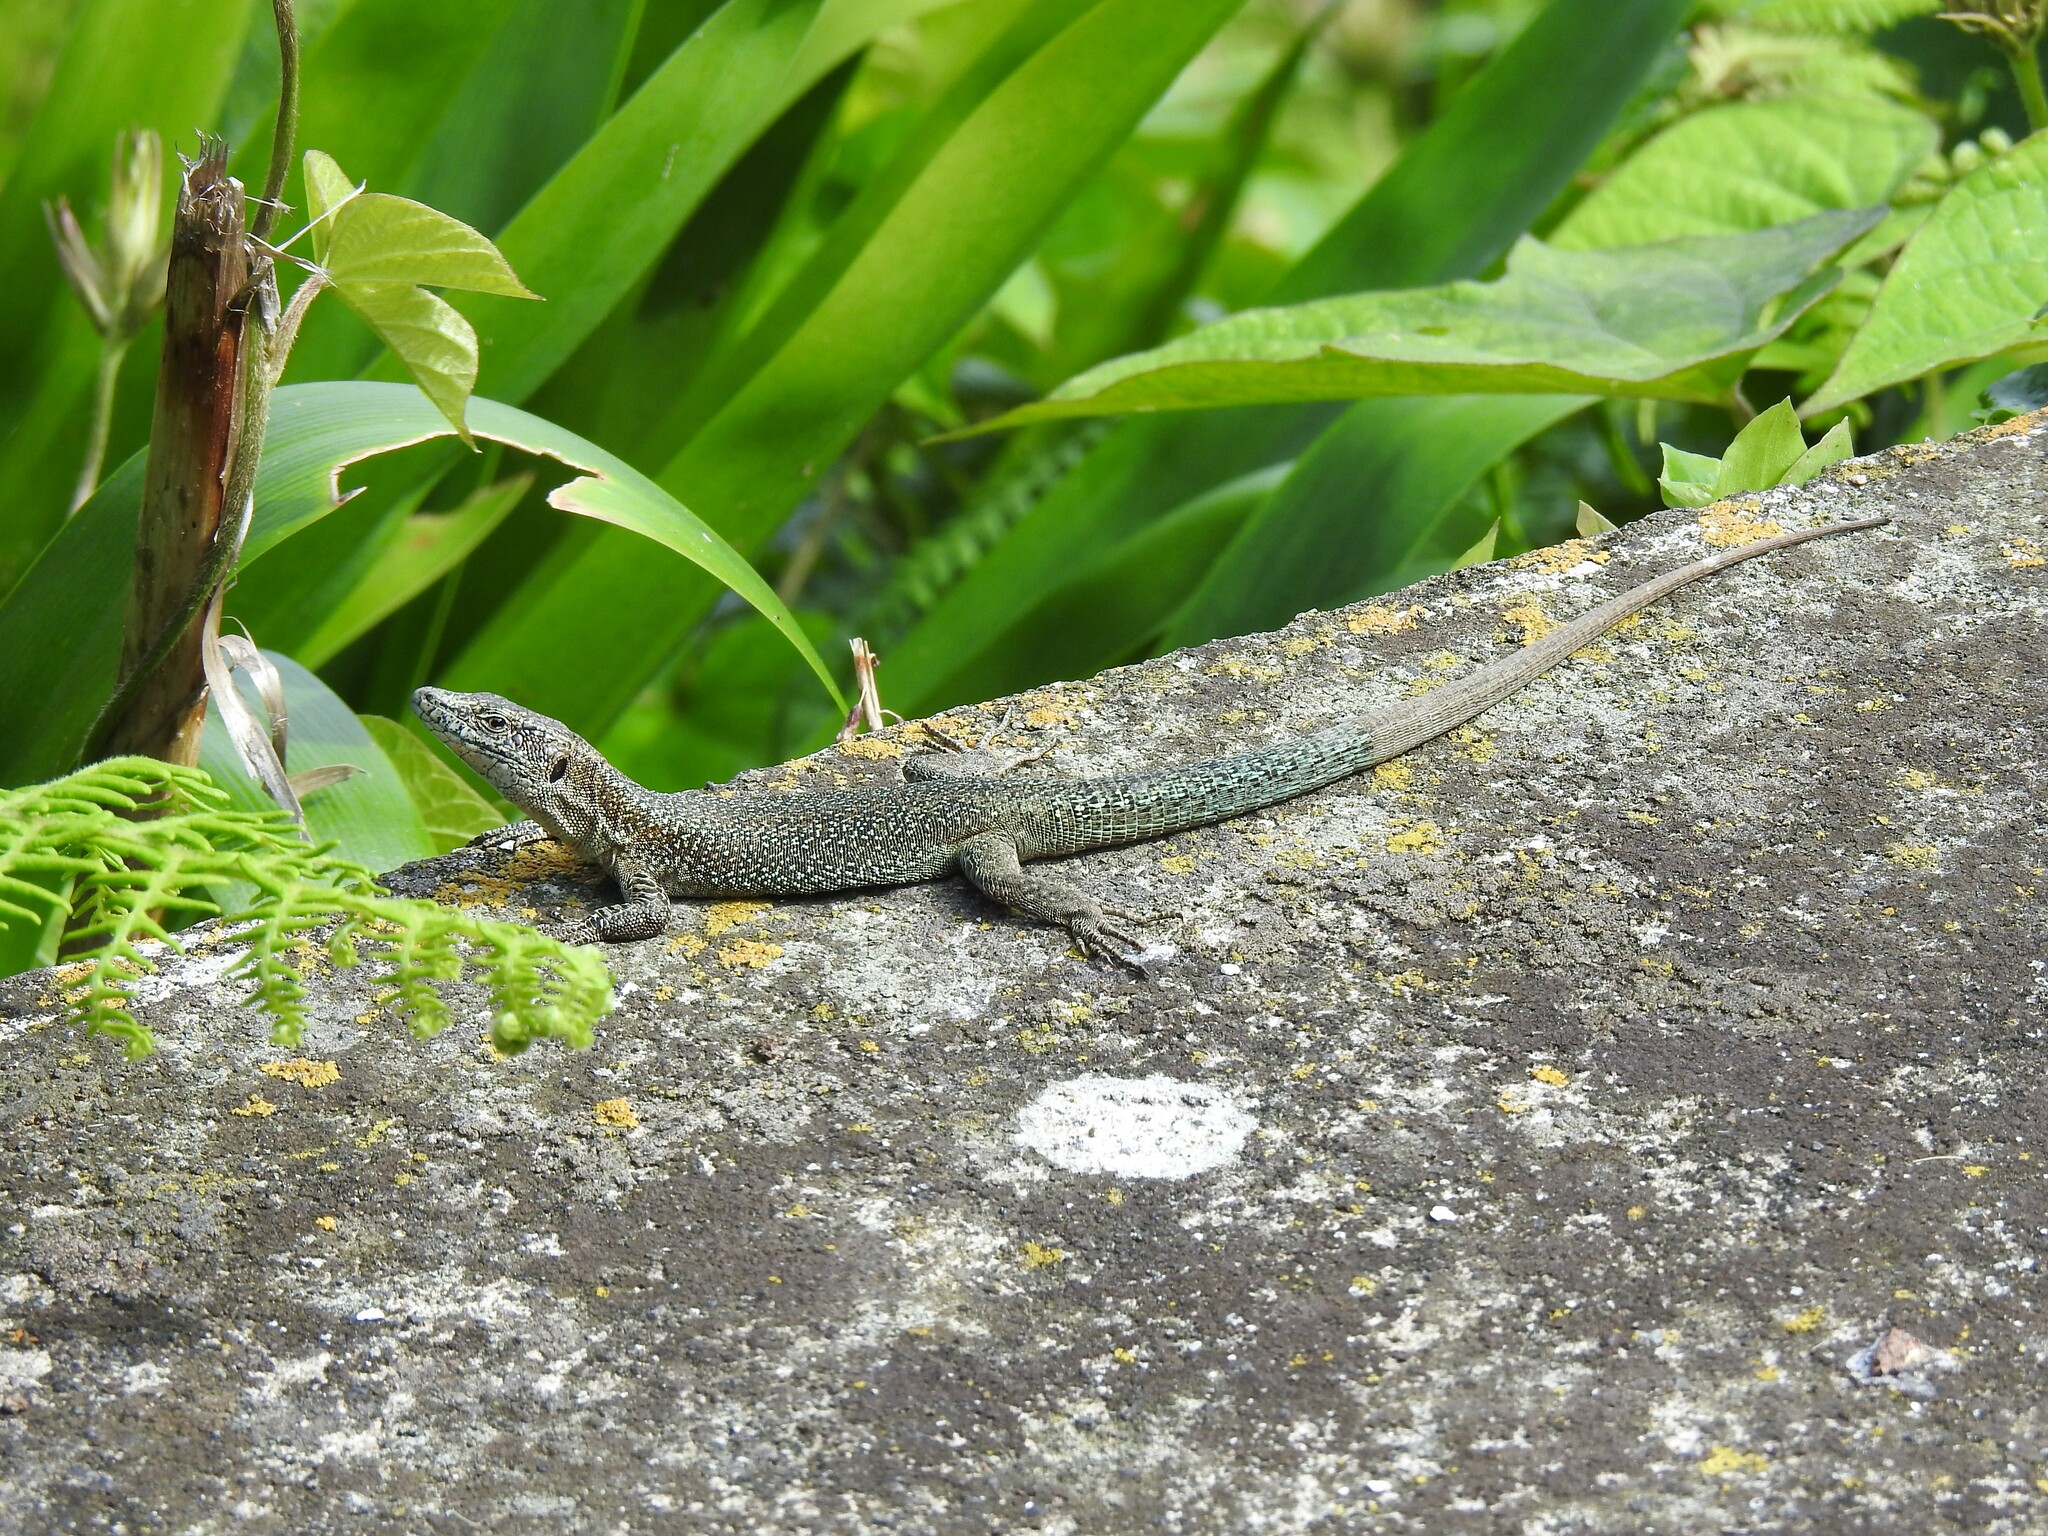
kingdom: Animalia
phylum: Chordata
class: Squamata
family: Lacertidae
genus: Teira
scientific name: Teira dugesii
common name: Madeira lizard
